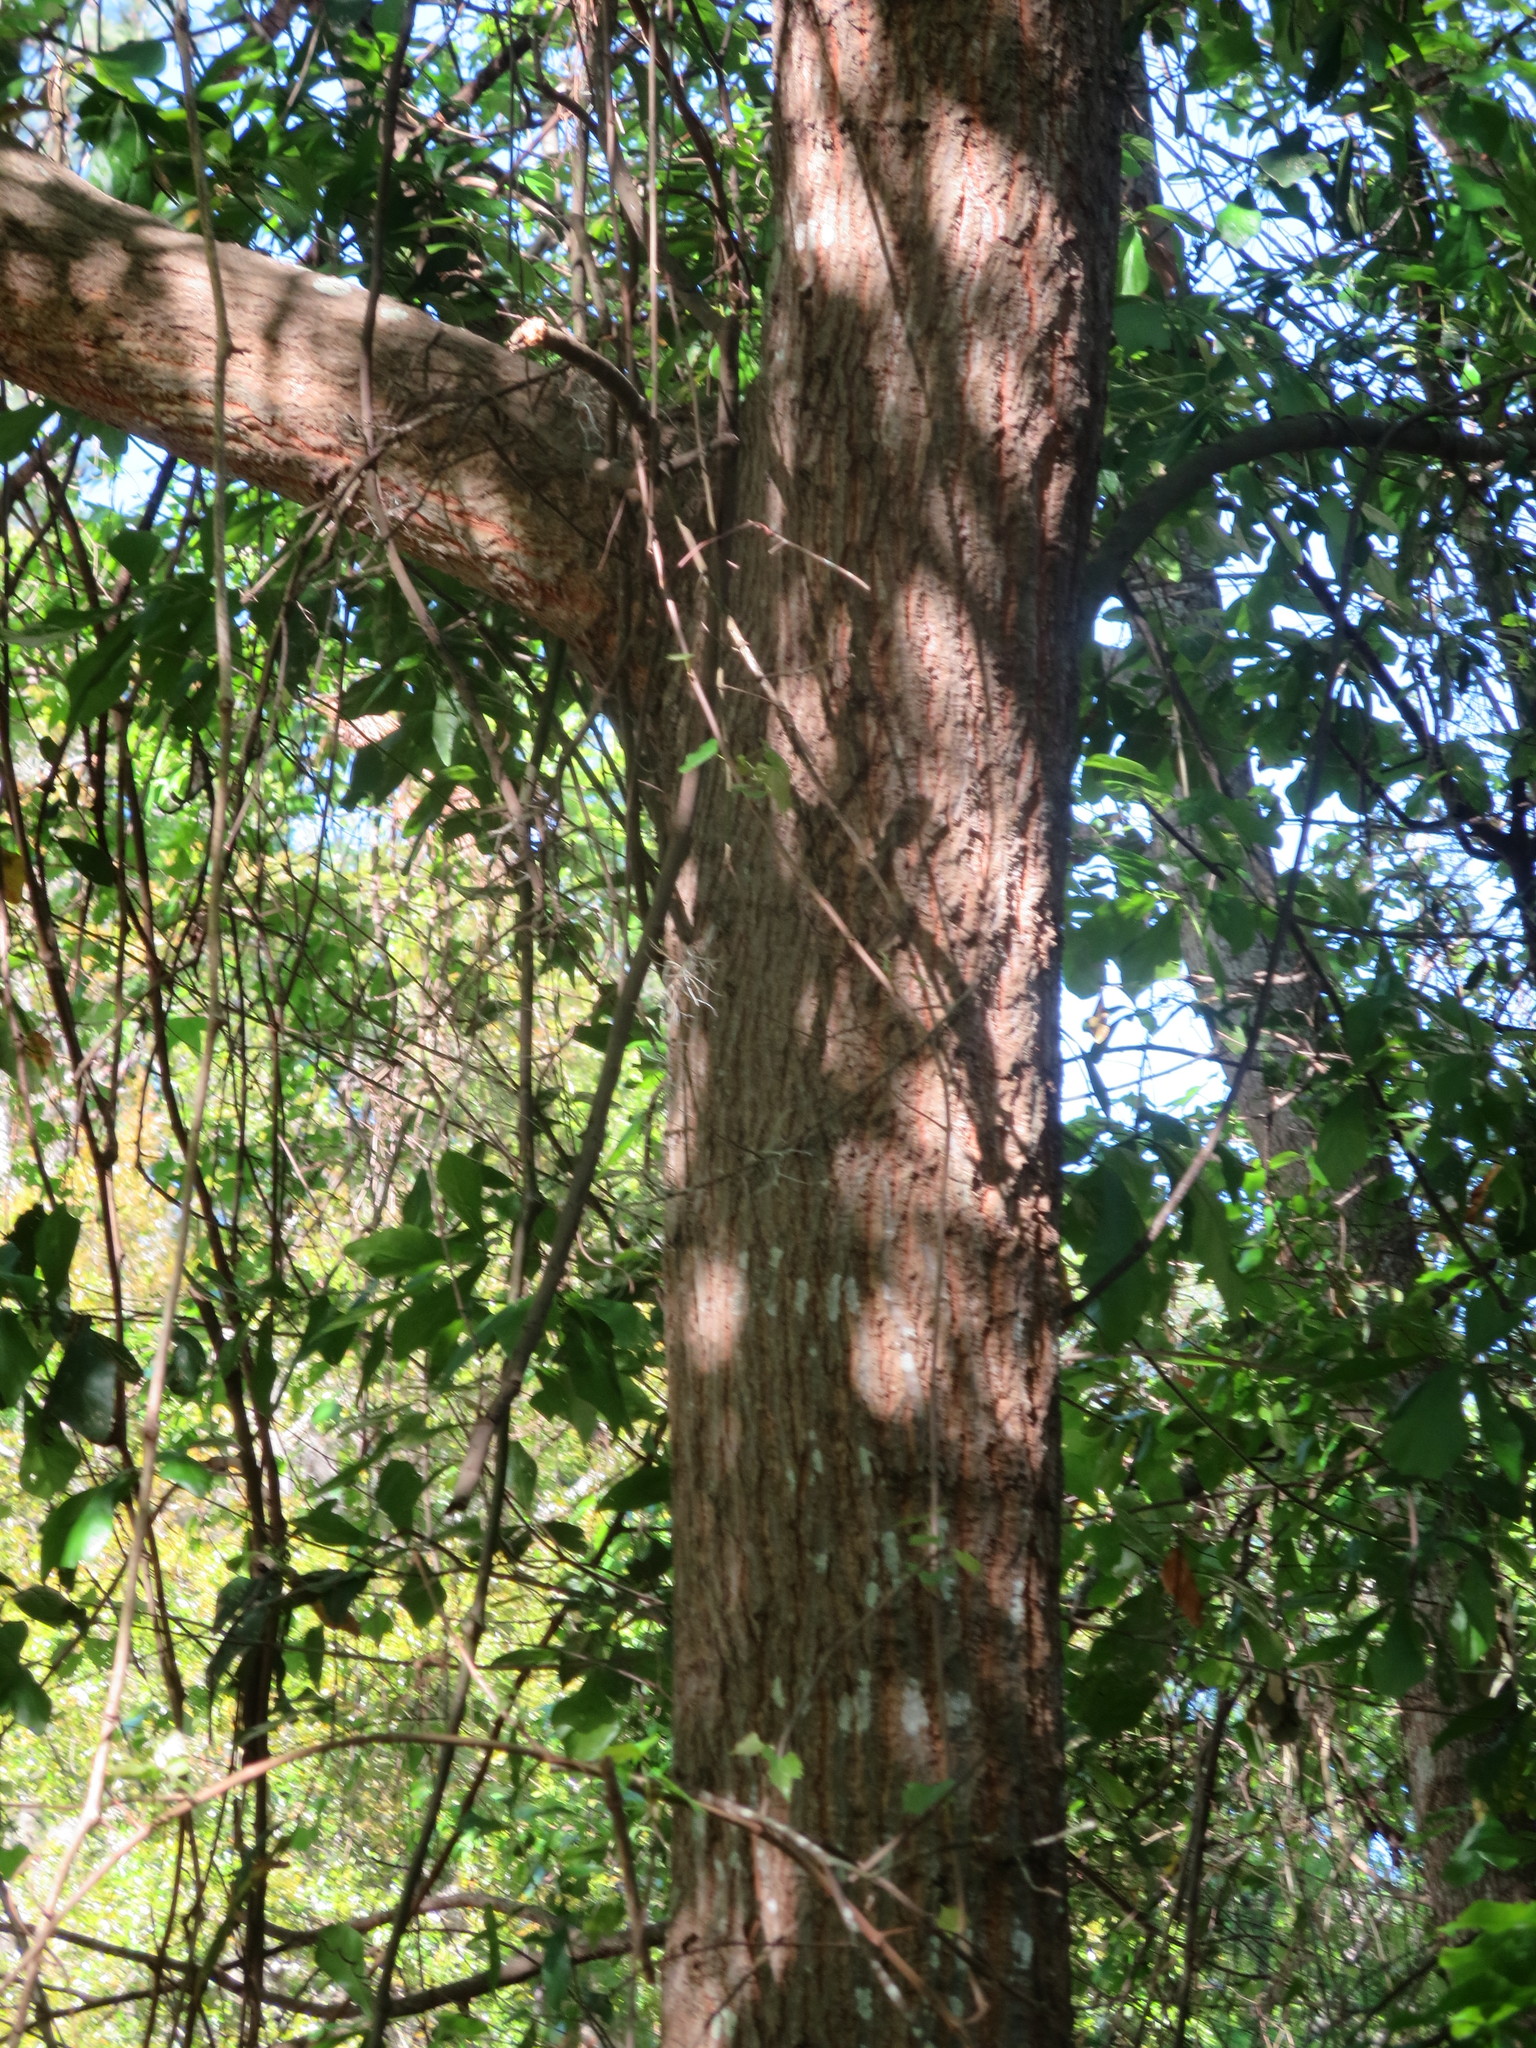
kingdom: Plantae
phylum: Tracheophyta
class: Magnoliopsida
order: Fagales
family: Fagaceae
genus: Quercus
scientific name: Quercus phellos
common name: Willow oak
